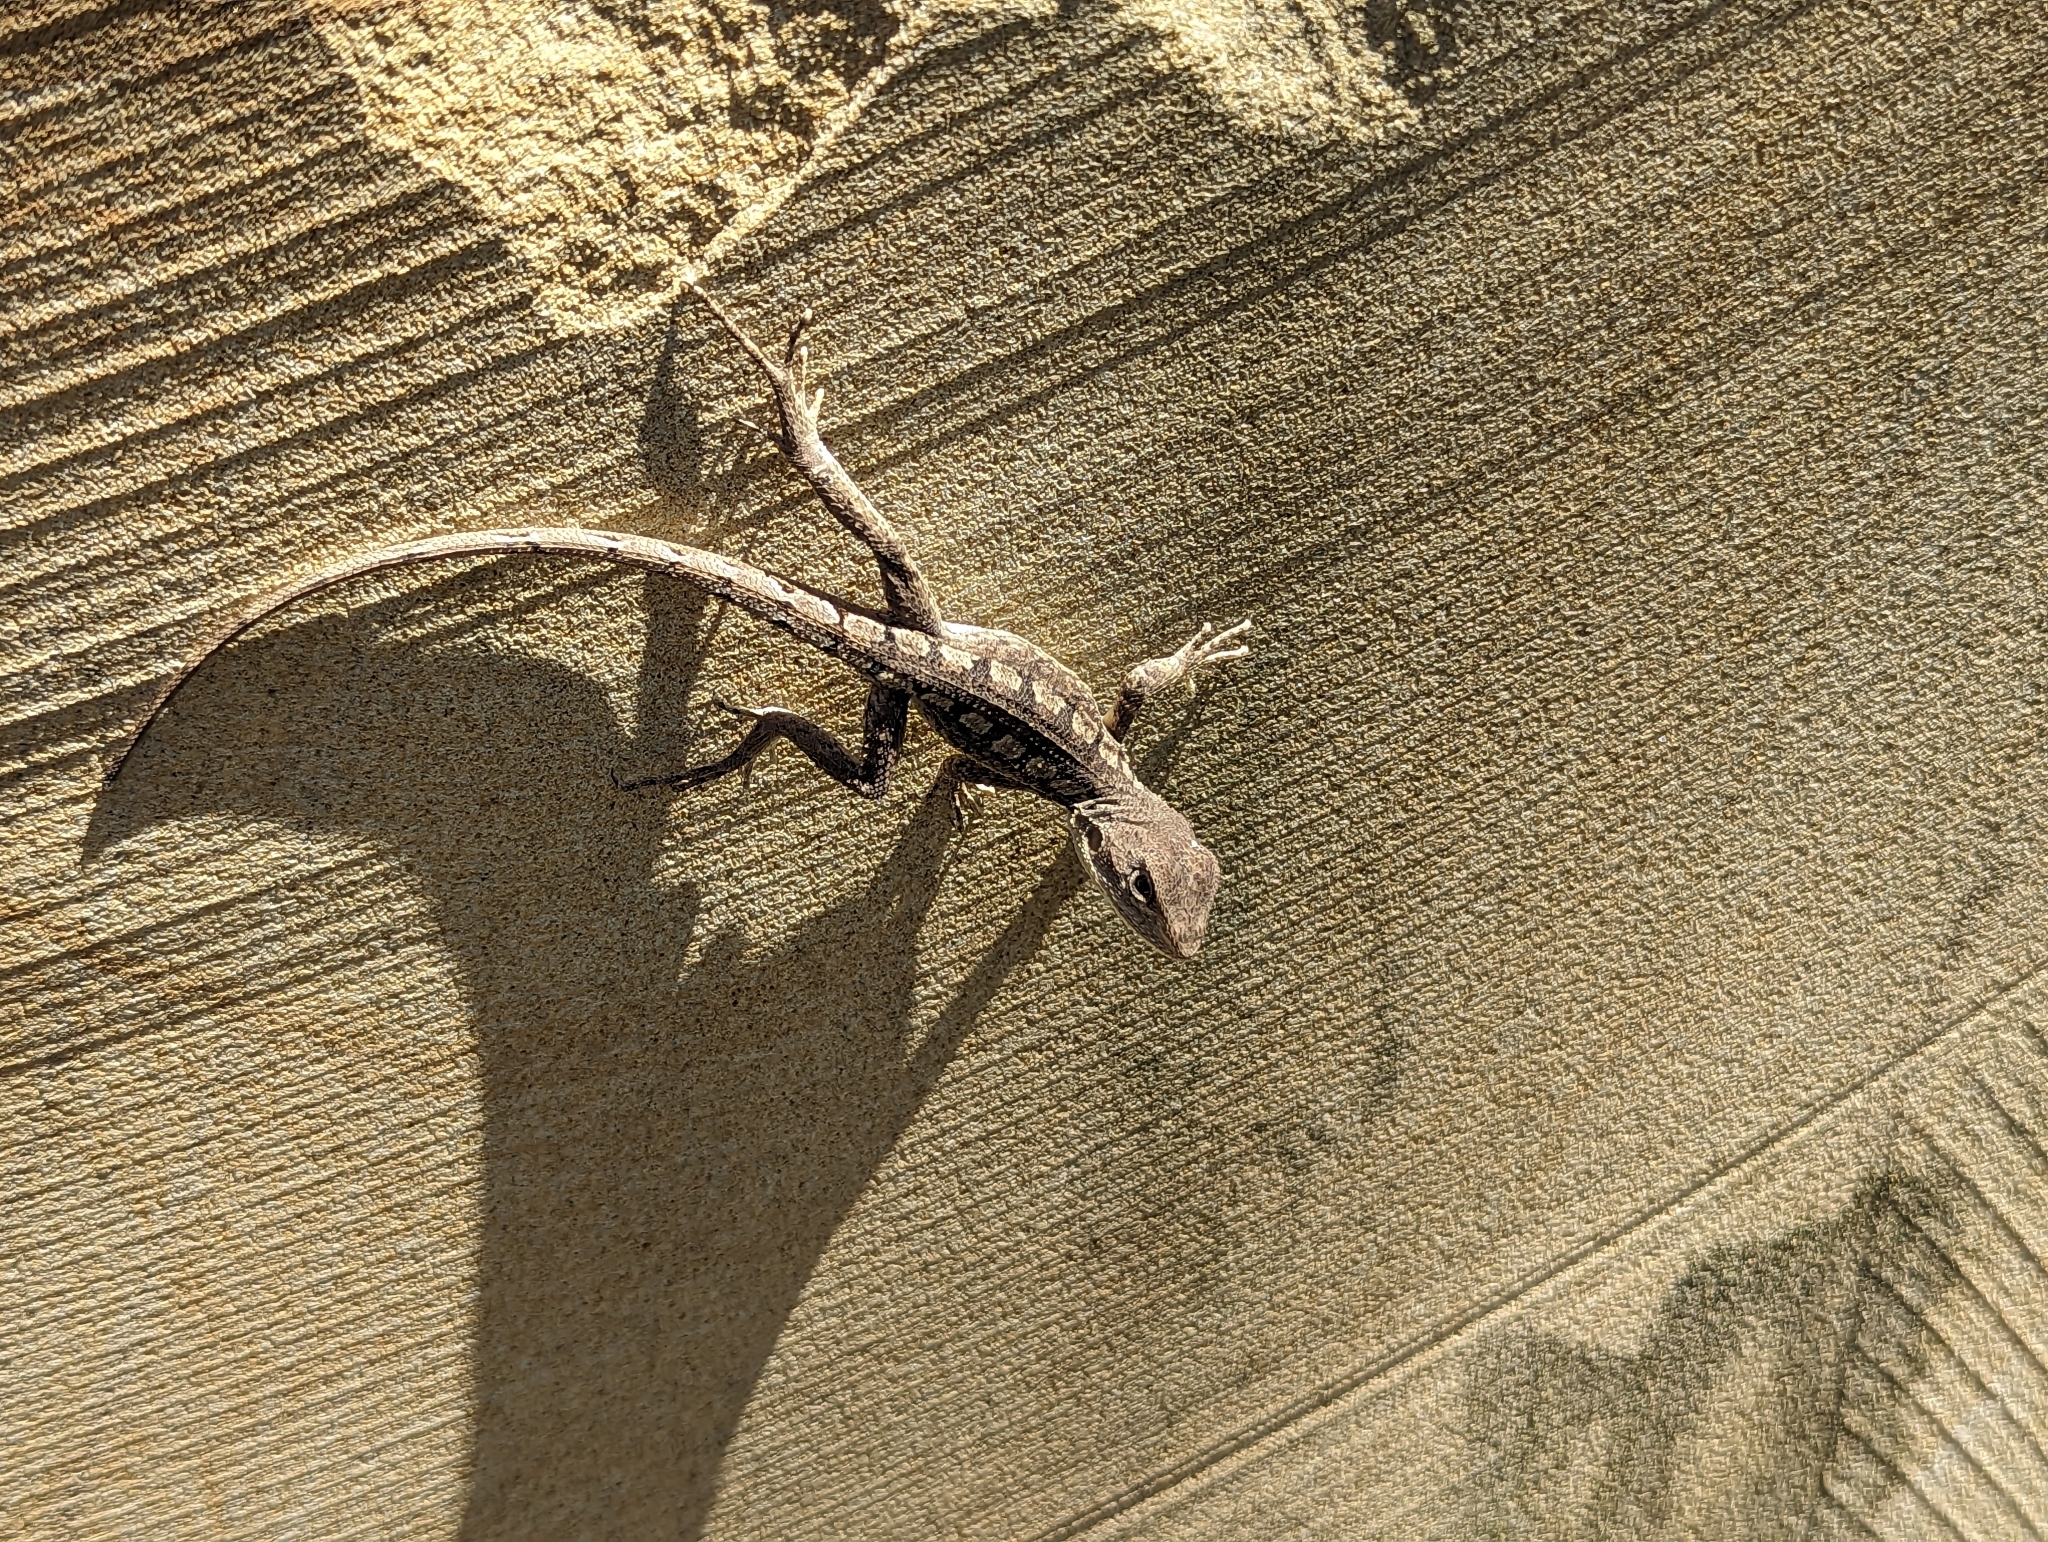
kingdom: Animalia
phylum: Chordata
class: Squamata
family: Agamidae
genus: Amphibolurus
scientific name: Amphibolurus muricatus
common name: Jacky lizard
